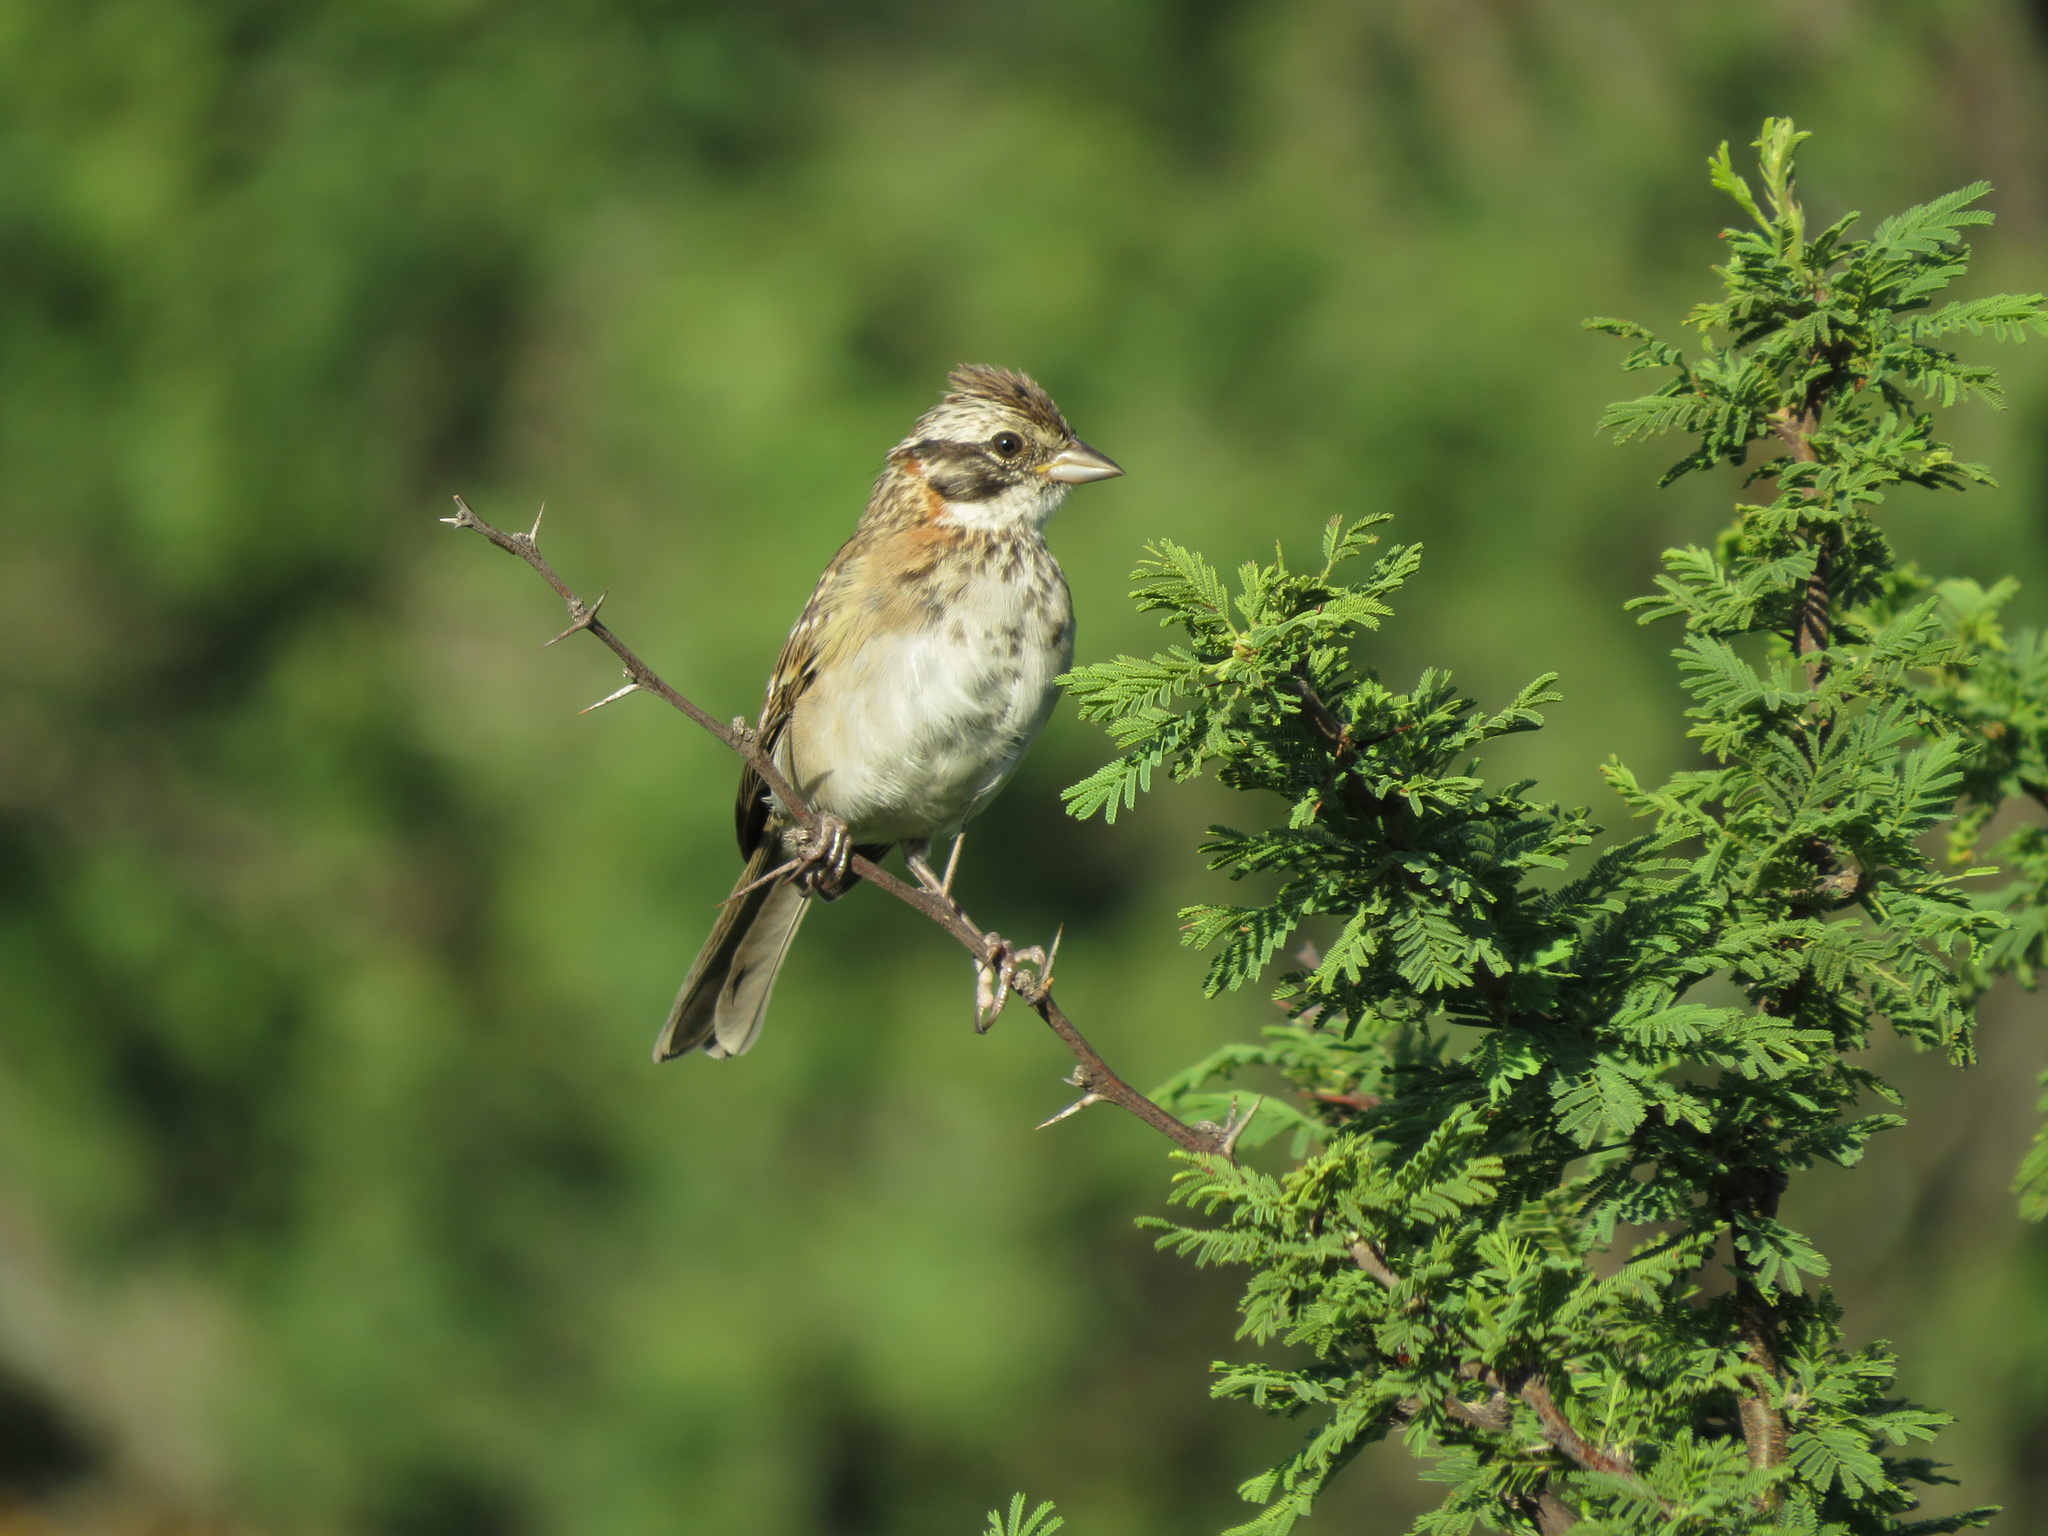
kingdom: Animalia
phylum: Chordata
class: Aves
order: Passeriformes
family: Passerellidae
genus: Zonotrichia
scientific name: Zonotrichia capensis
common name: Rufous-collared sparrow
